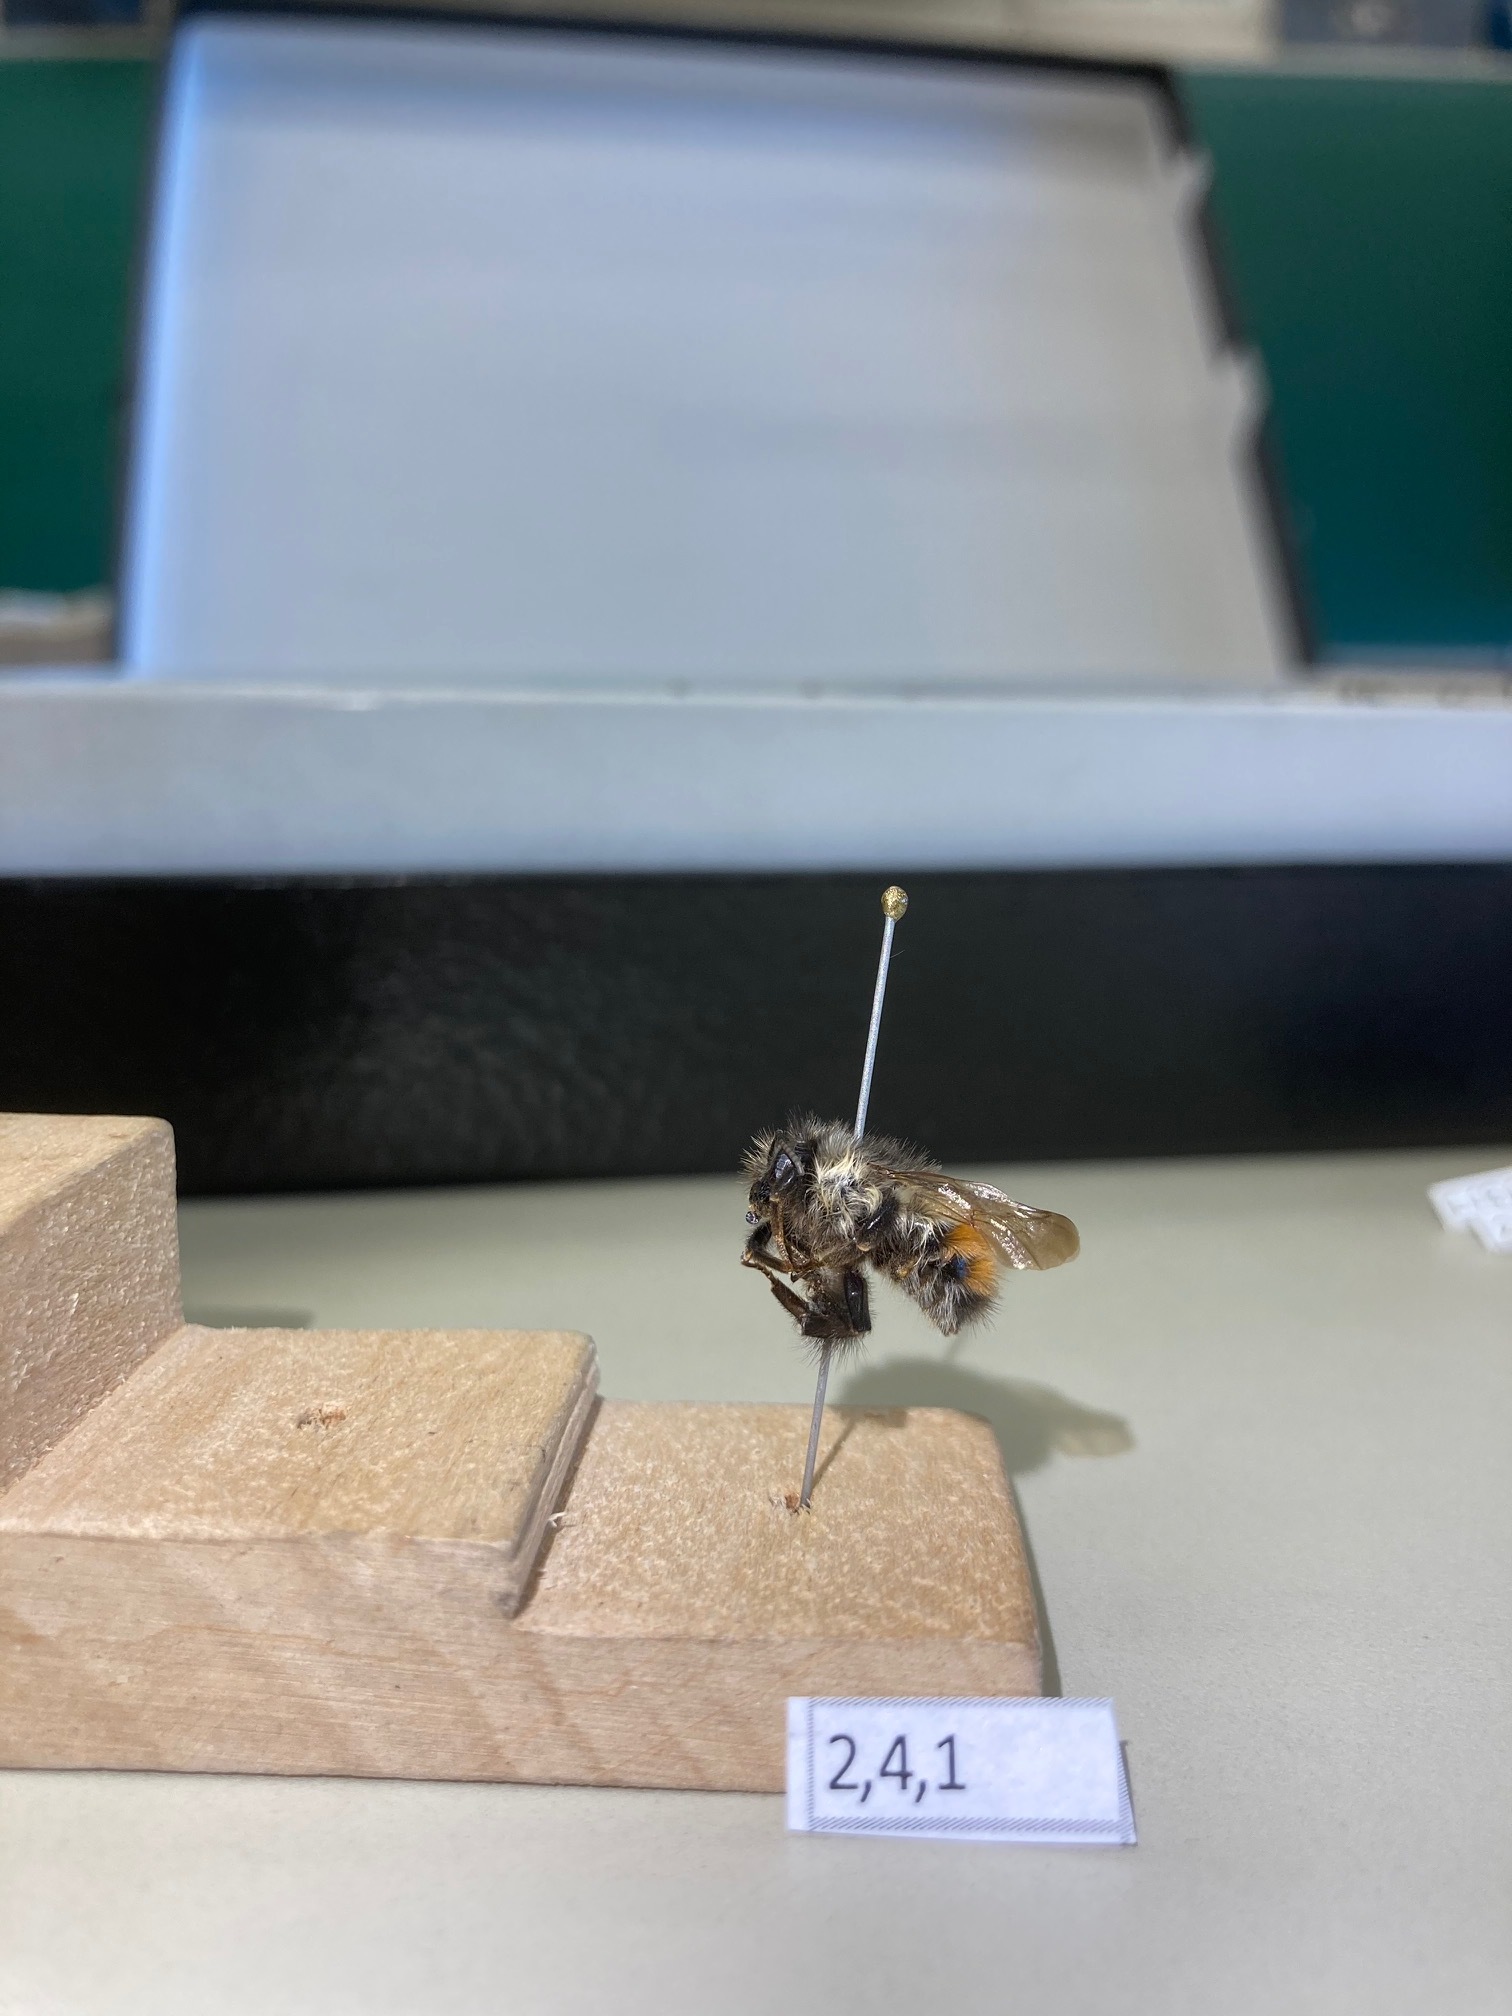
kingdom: Animalia
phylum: Arthropoda
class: Insecta
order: Hymenoptera
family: Apidae
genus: Bombus
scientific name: Bombus flavifrons
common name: Yellow head bumble bee
